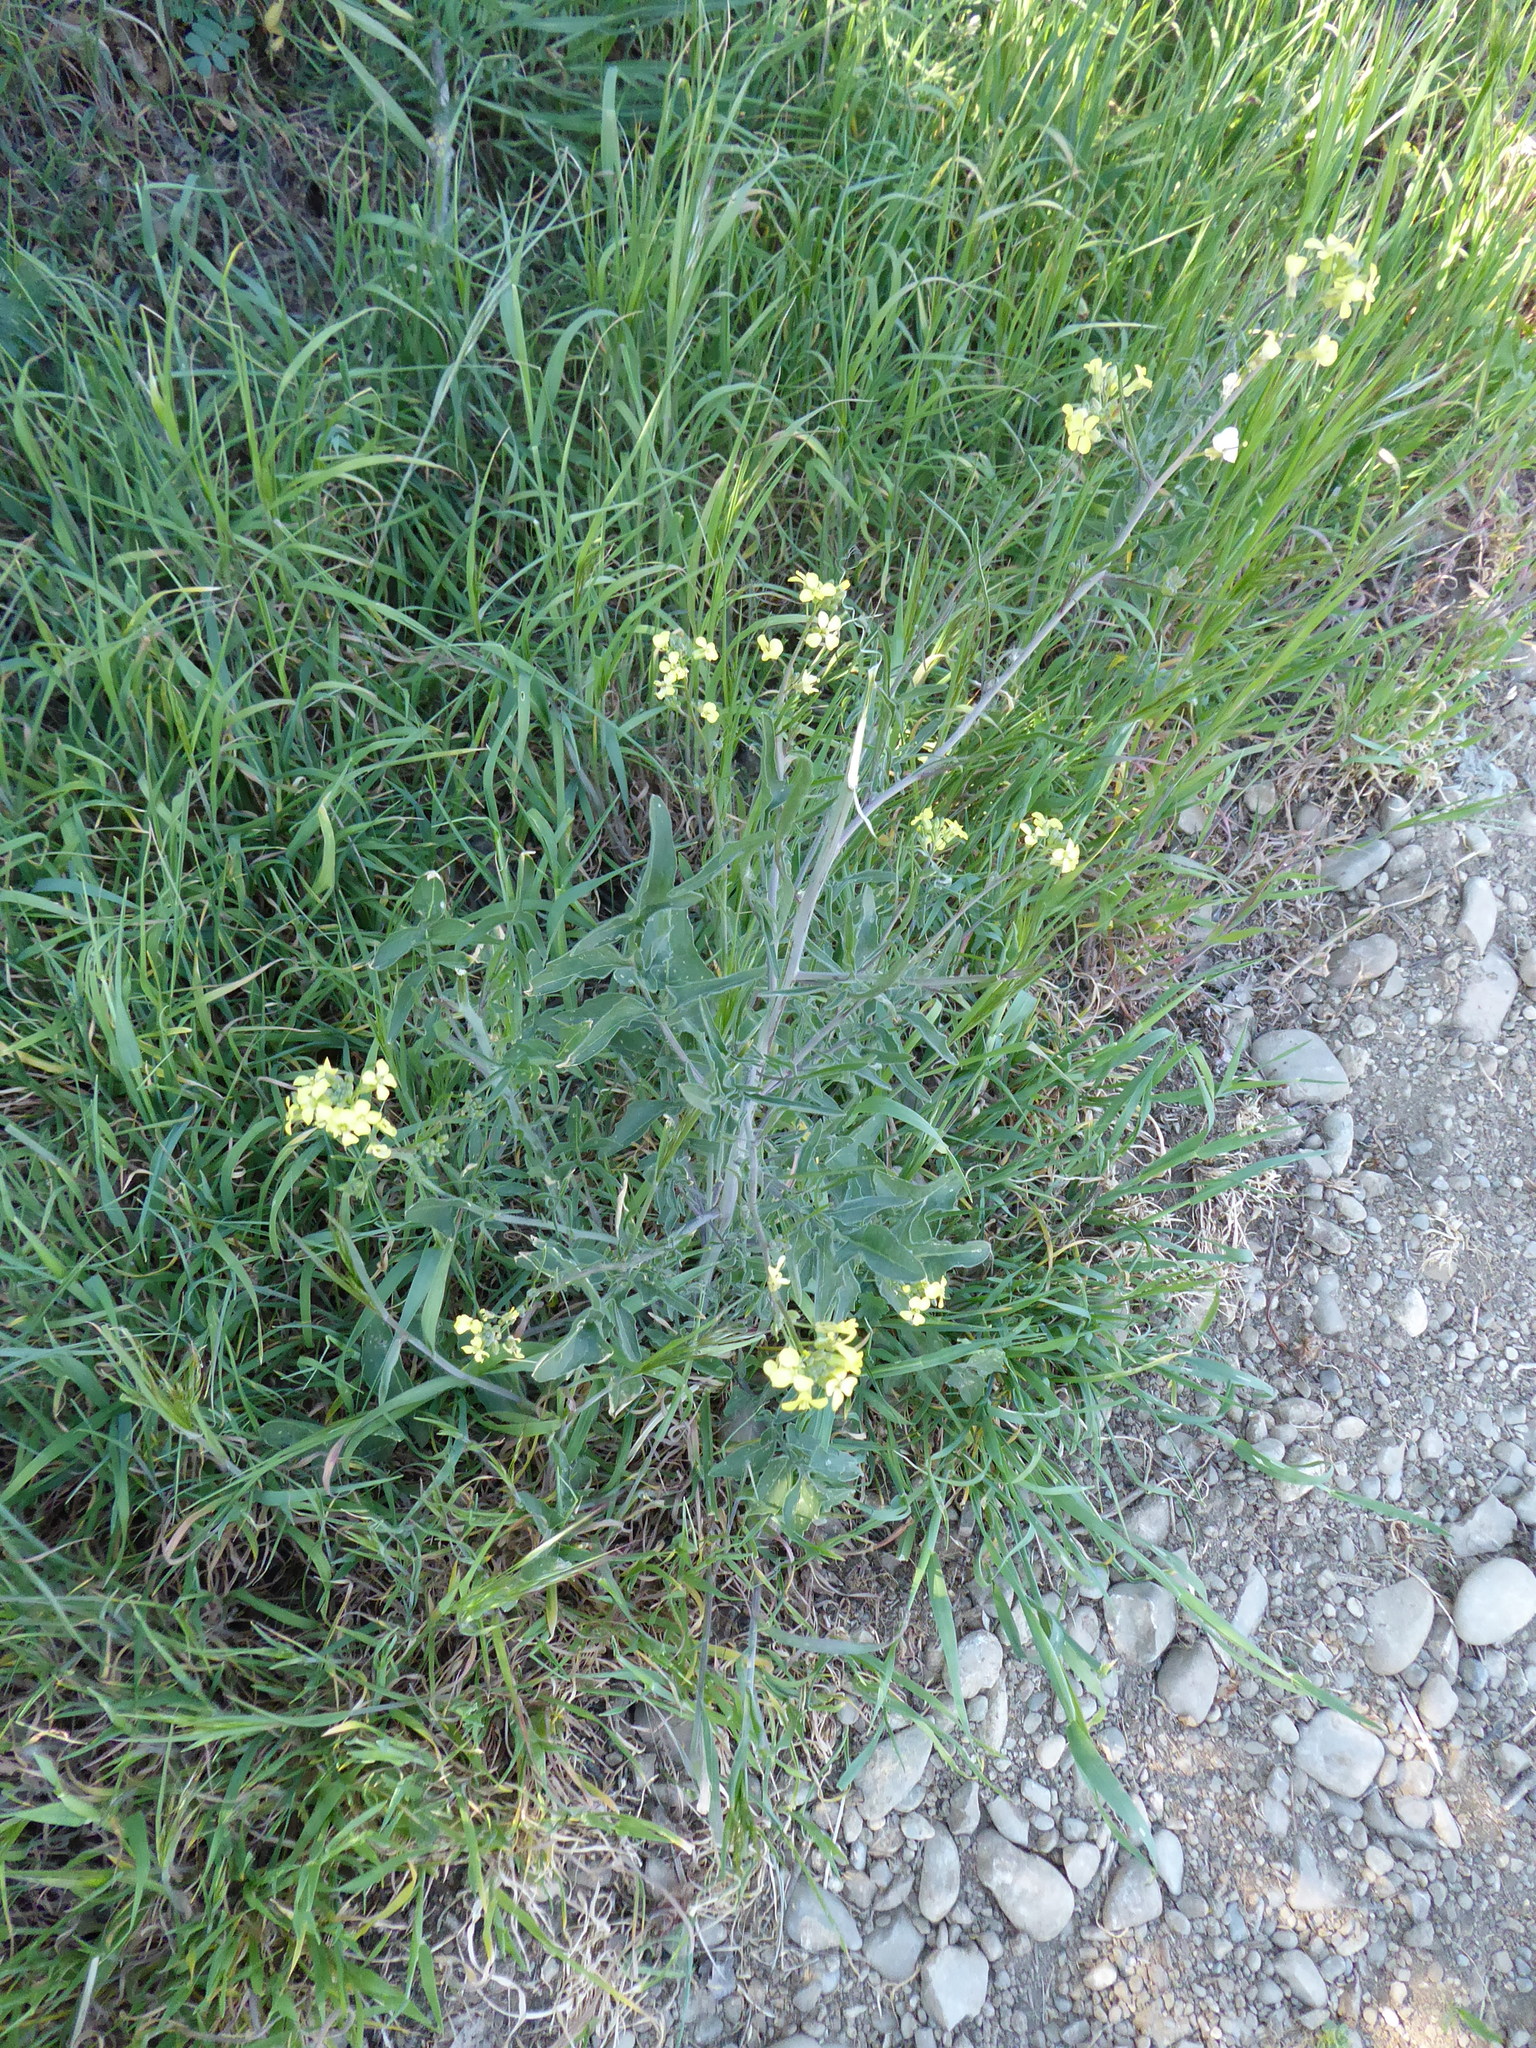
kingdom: Plantae
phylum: Tracheophyta
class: Magnoliopsida
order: Brassicales
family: Brassicaceae
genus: Sisymbrium
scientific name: Sisymbrium orientale
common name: Eastern rocket
